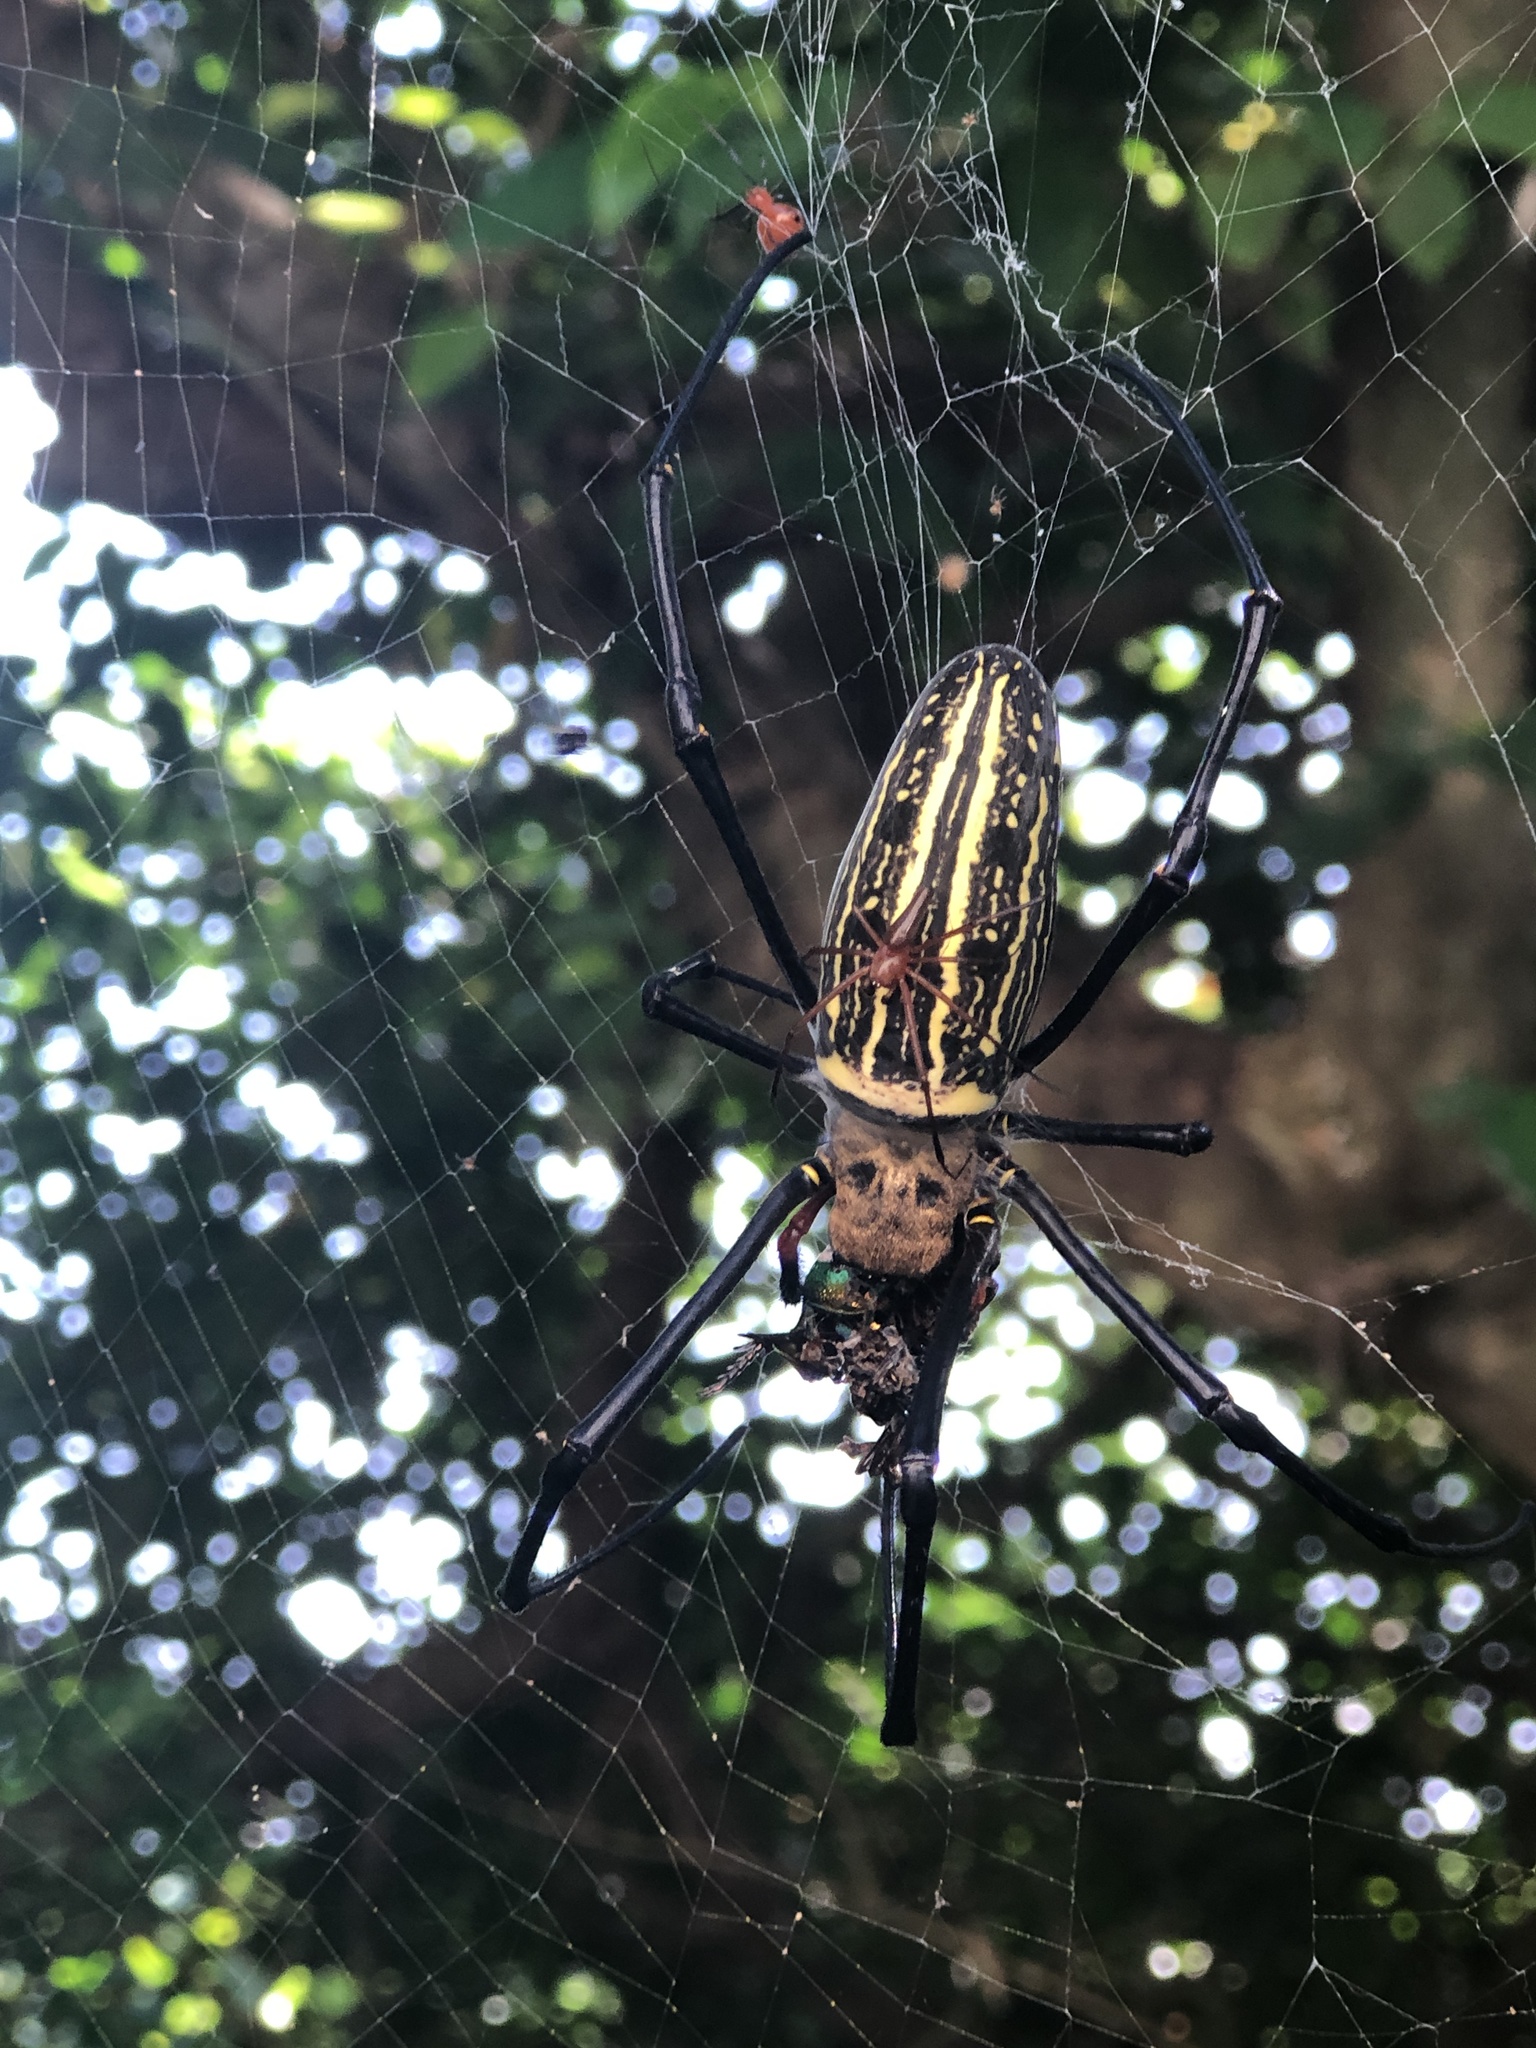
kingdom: Animalia
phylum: Arthropoda
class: Arachnida
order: Araneae
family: Araneidae
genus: Nephila
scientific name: Nephila pilipes
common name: Giant golden orb weaver
